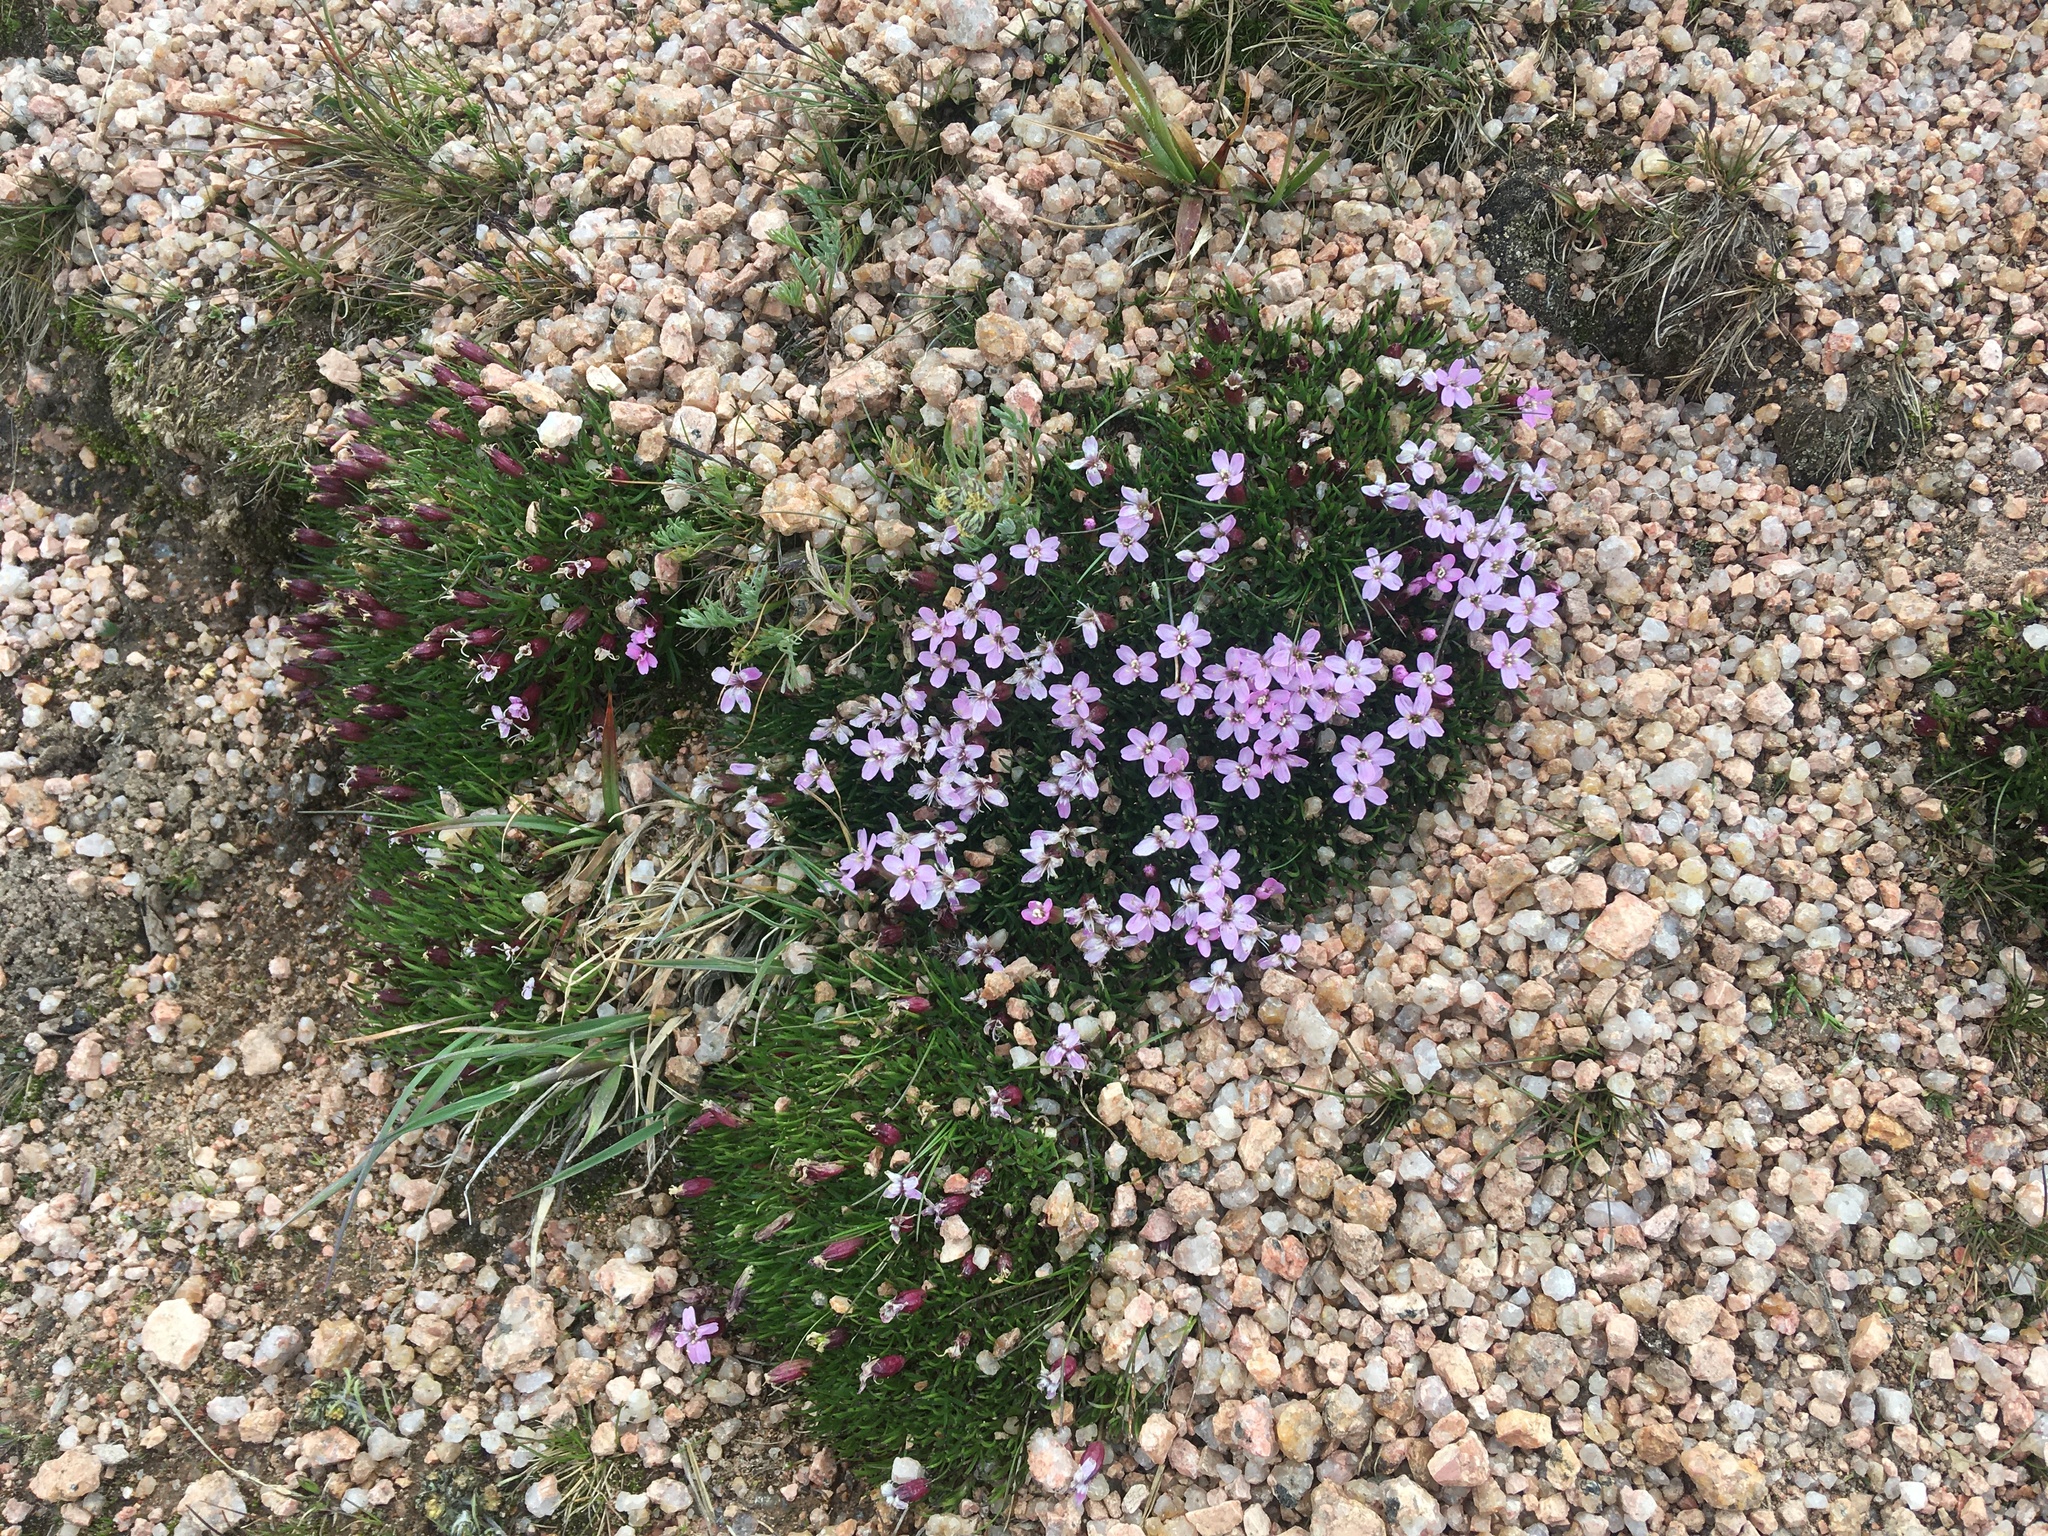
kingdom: Plantae
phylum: Tracheophyta
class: Magnoliopsida
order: Caryophyllales
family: Caryophyllaceae
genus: Silene
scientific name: Silene acaulis
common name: Moss campion
